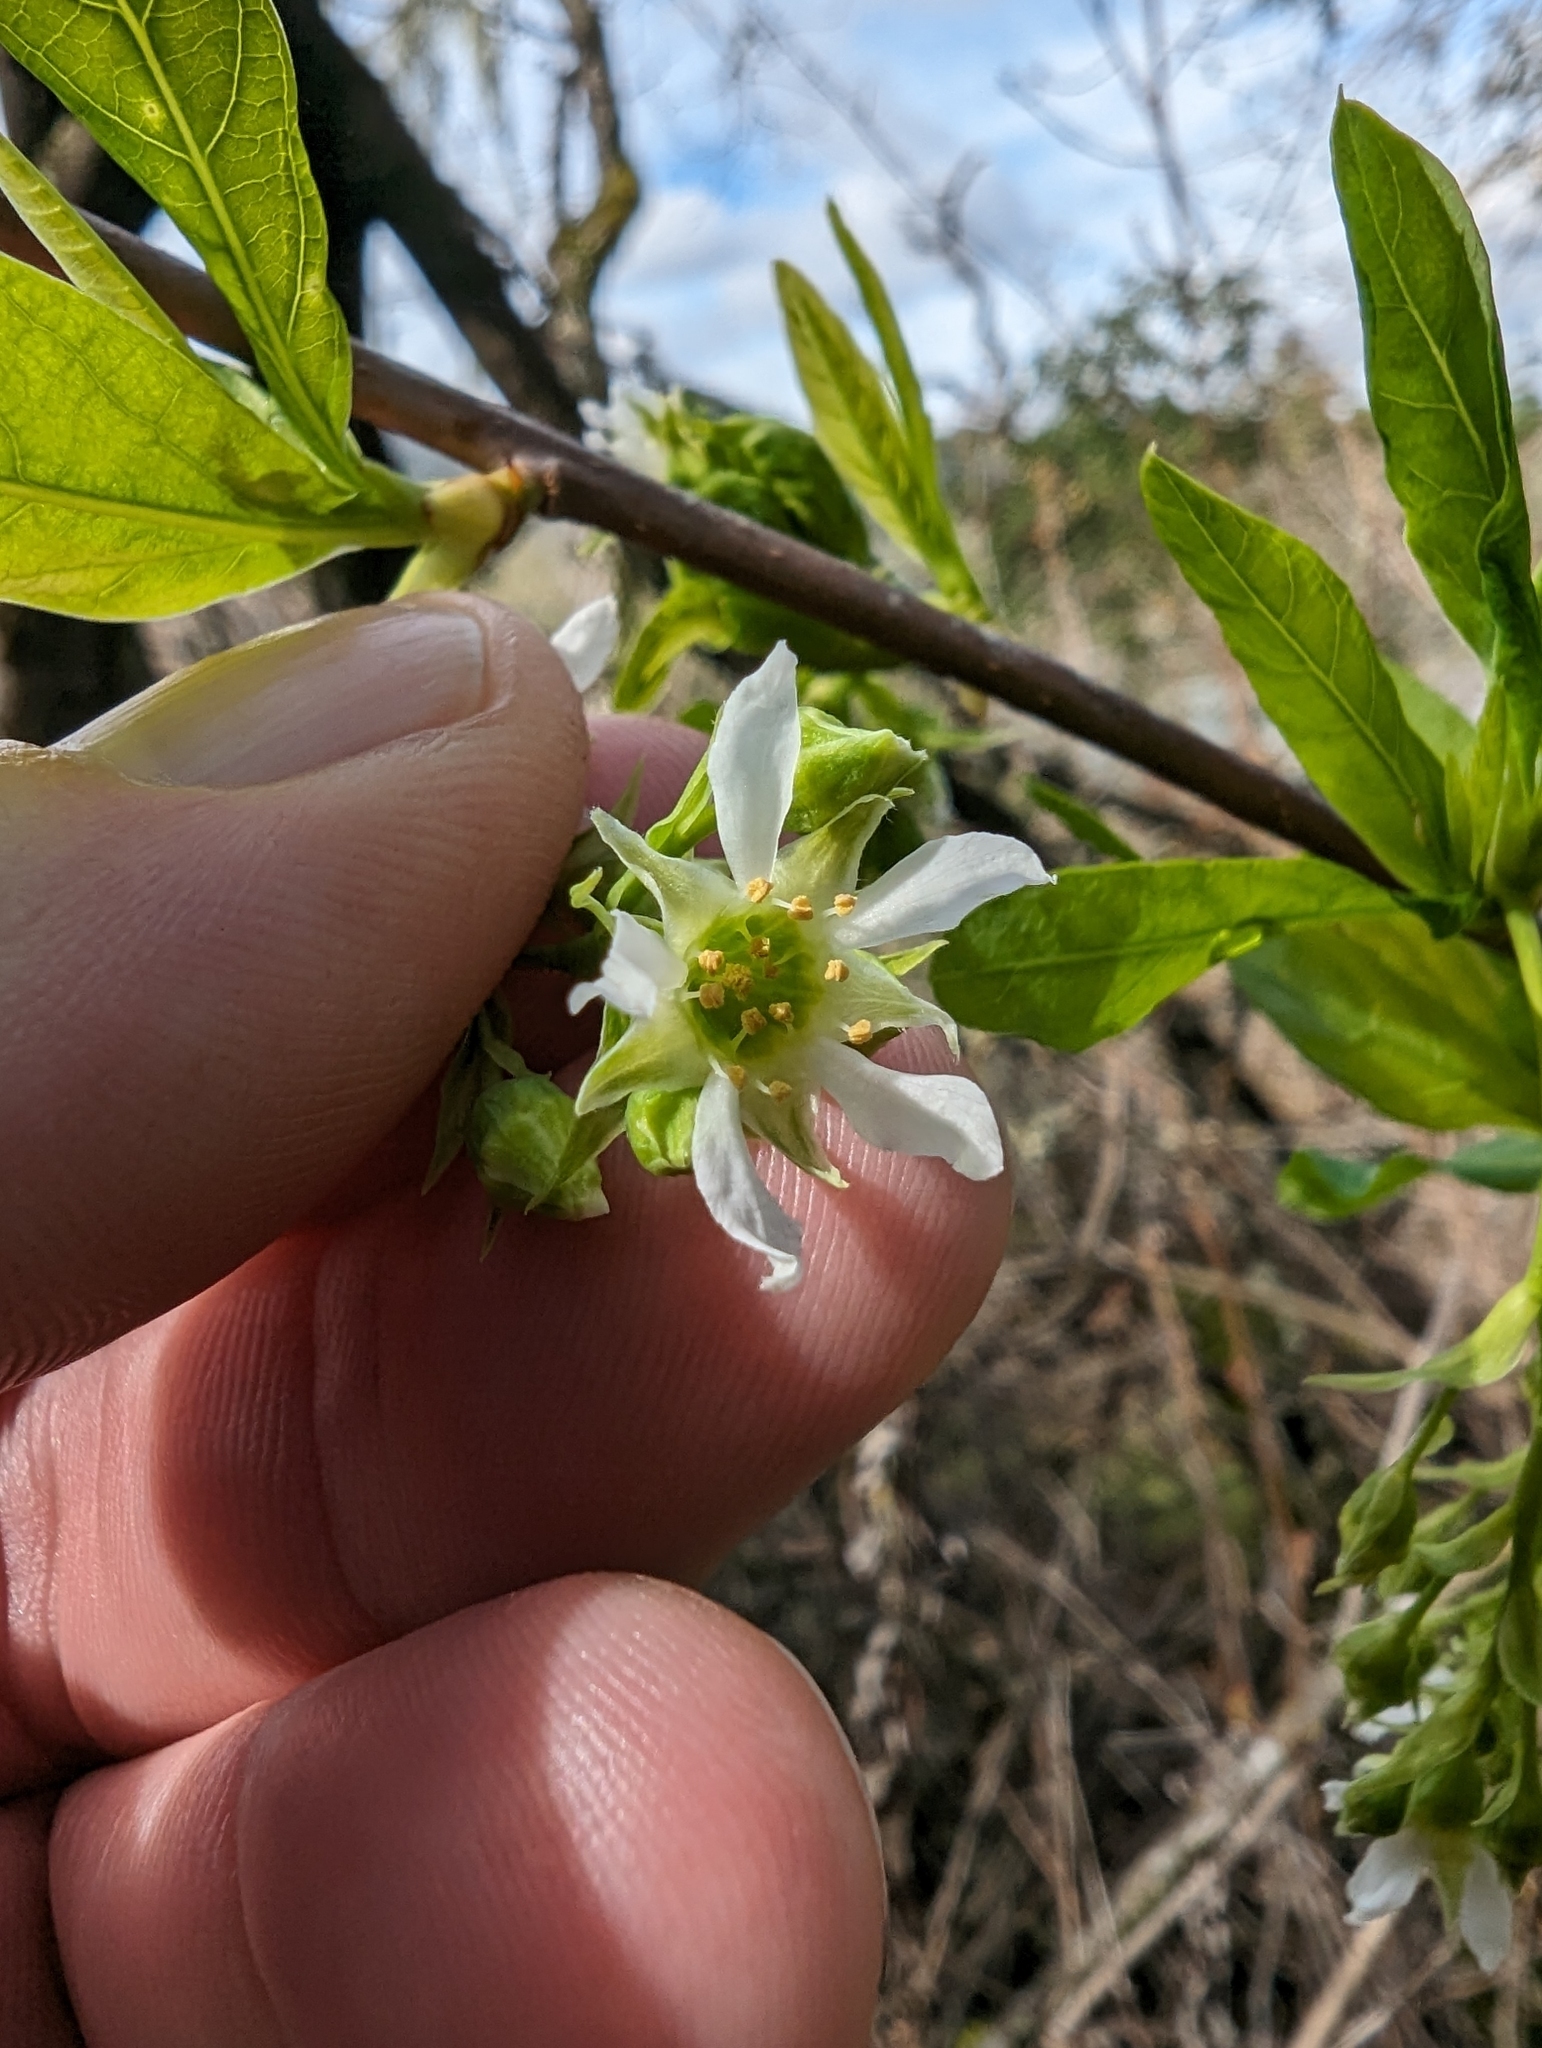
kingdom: Plantae
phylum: Tracheophyta
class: Magnoliopsida
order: Rosales
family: Rosaceae
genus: Oemleria
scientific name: Oemleria cerasiformis
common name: Osoberry
